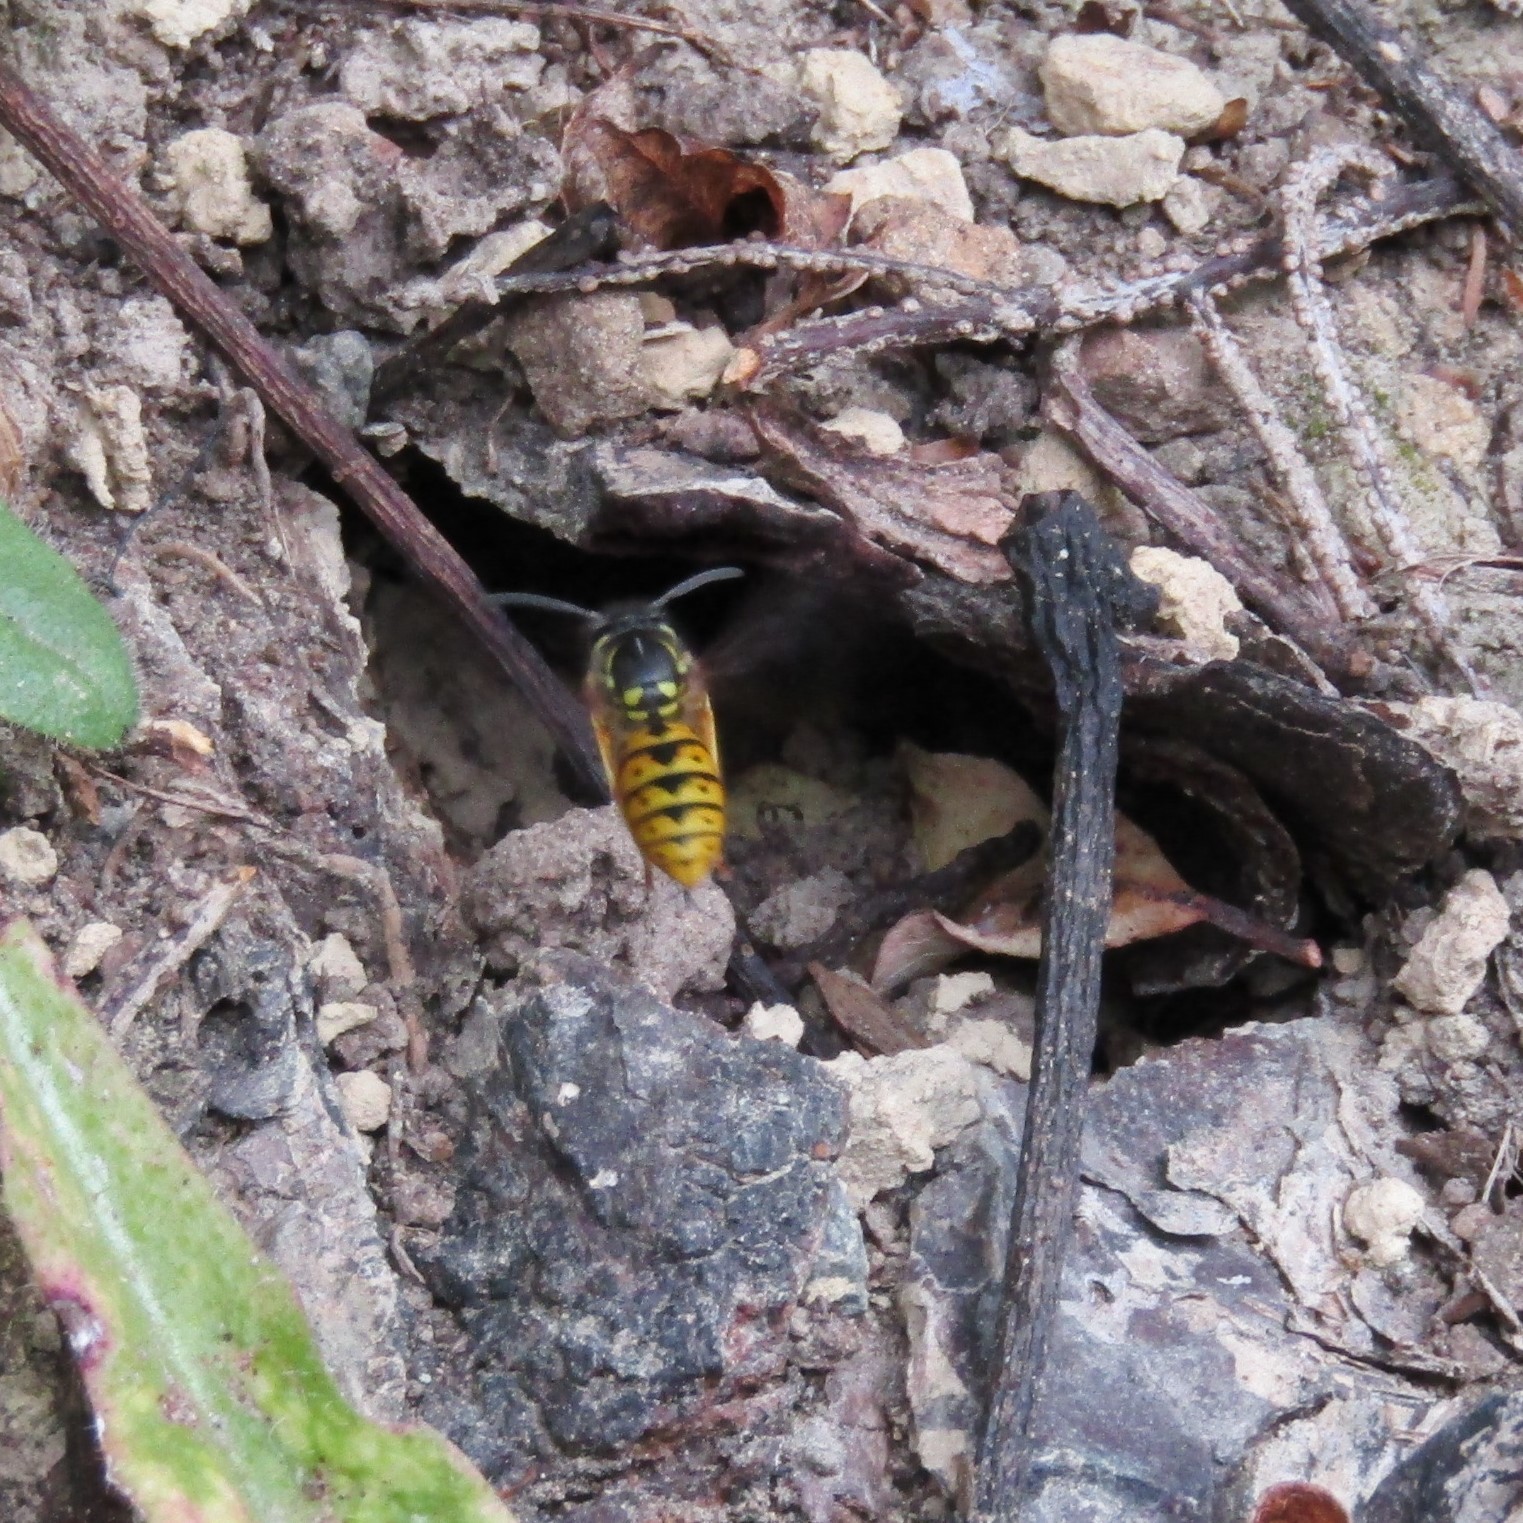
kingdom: Animalia
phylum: Arthropoda
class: Insecta
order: Hymenoptera
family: Vespidae
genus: Vespula
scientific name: Vespula germanica
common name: German wasp
